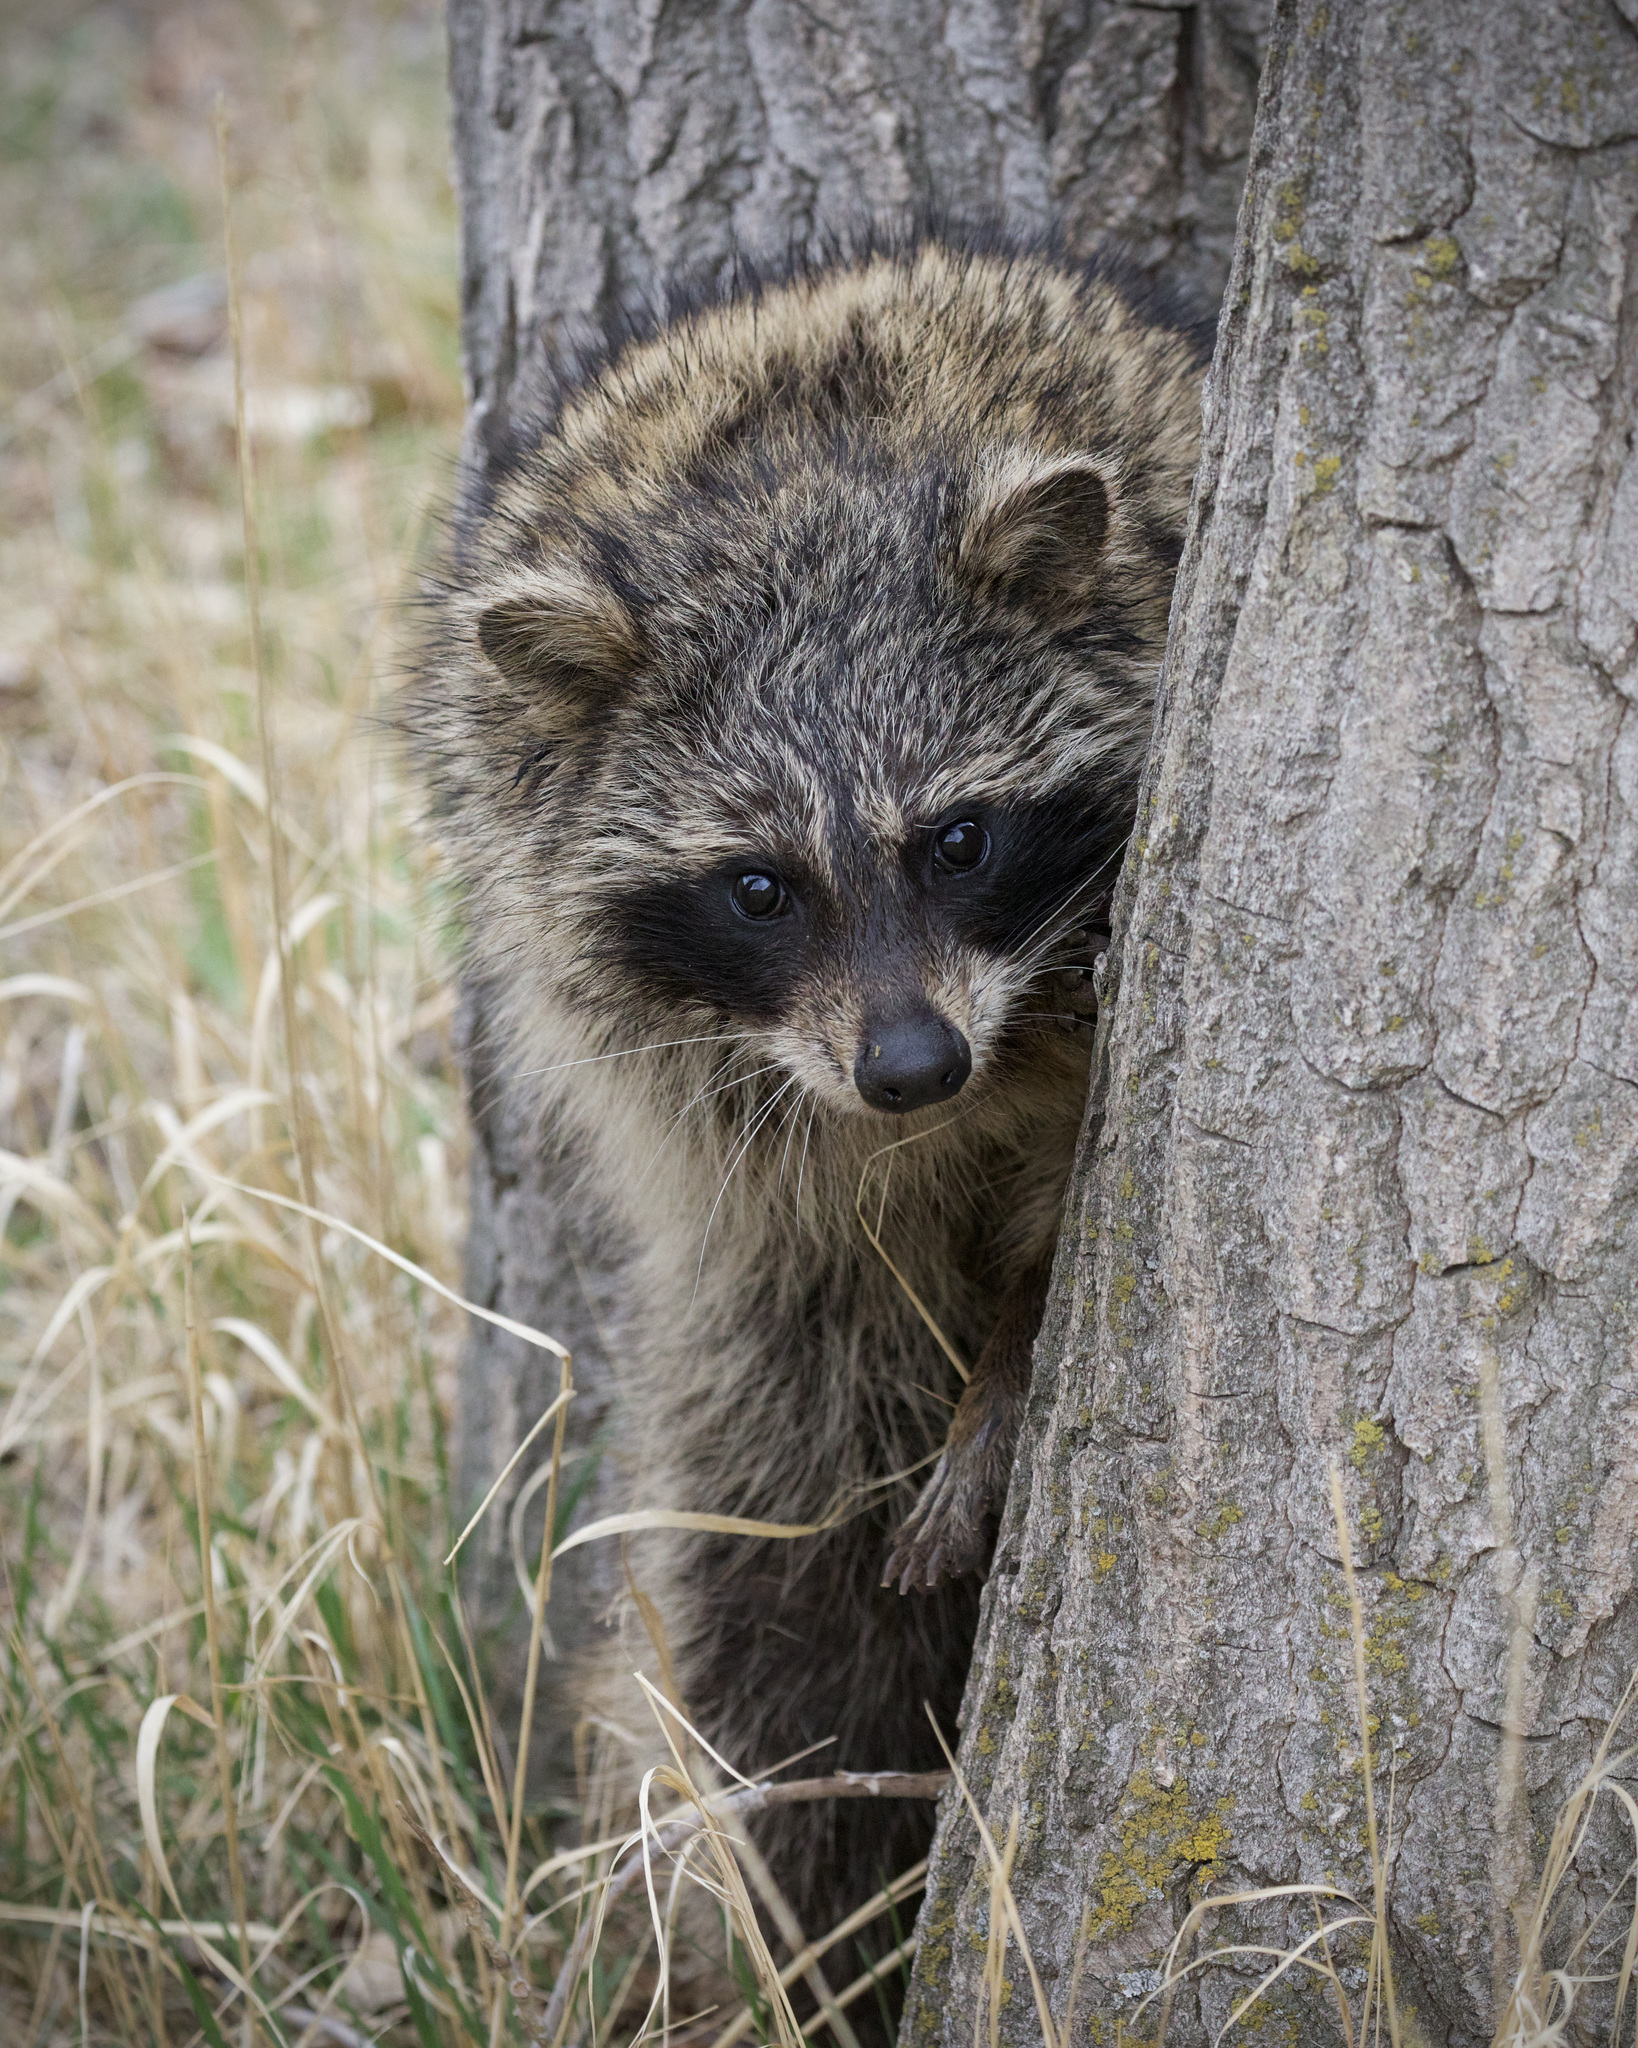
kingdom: Animalia
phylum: Chordata
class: Mammalia
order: Carnivora
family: Procyonidae
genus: Procyon
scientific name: Procyon lotor
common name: Raccoon
